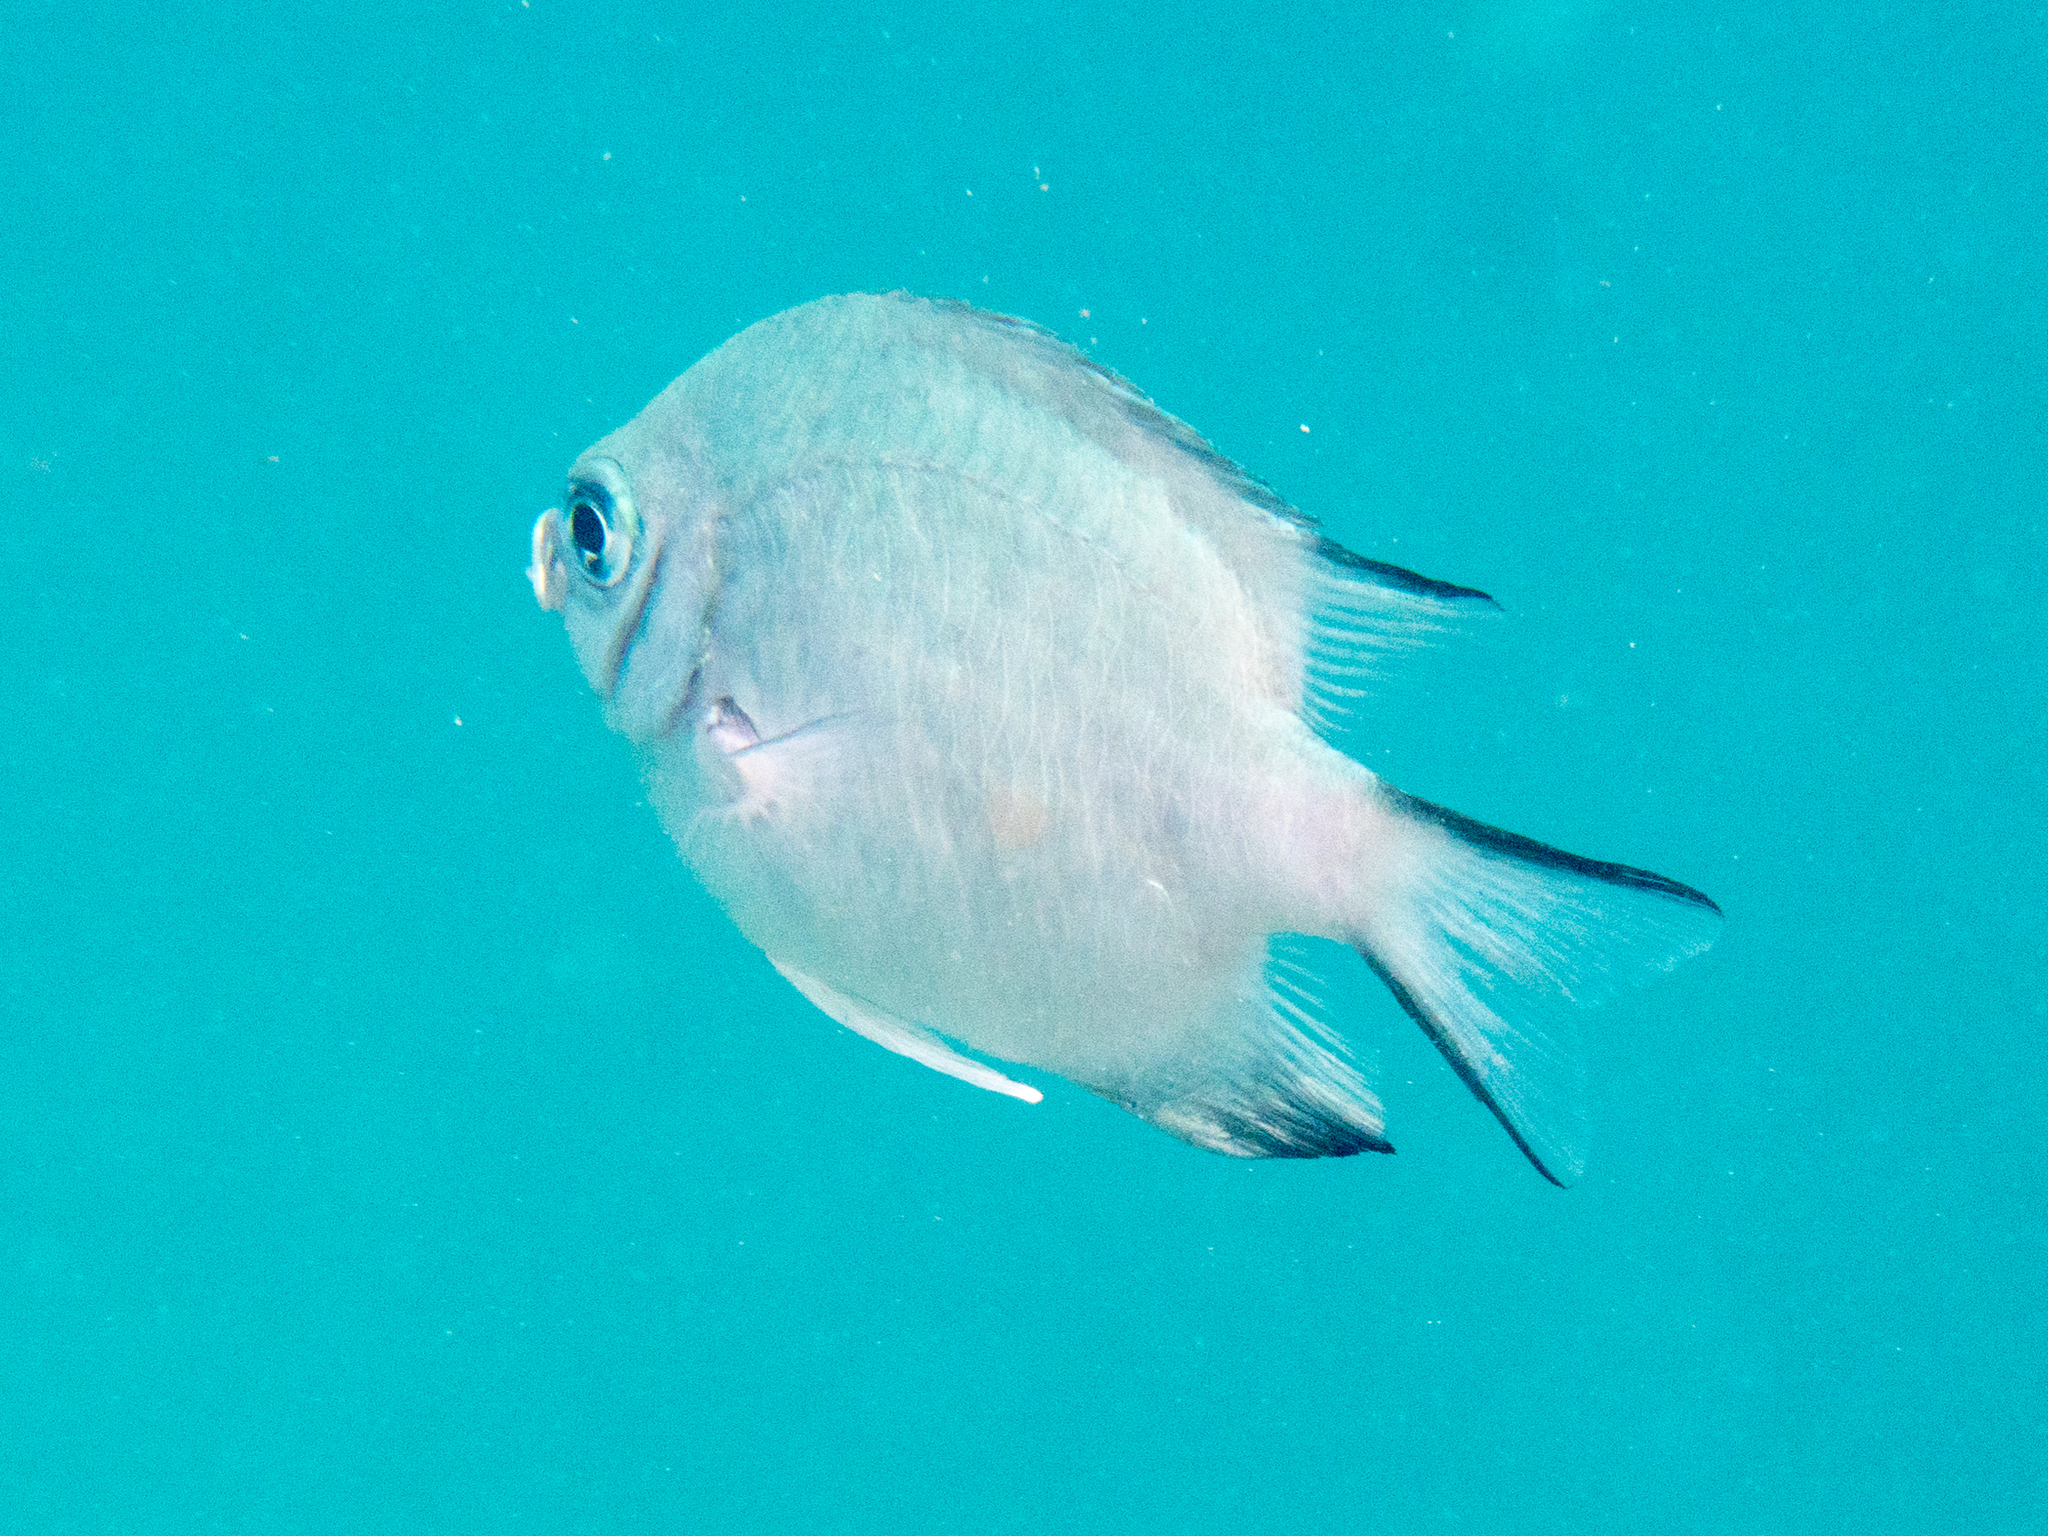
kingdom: Animalia
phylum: Chordata
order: Perciformes
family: Pomacentridae
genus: Amblyglyphidodon
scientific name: Amblyglyphidodon indicus
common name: Maldives damselfish
